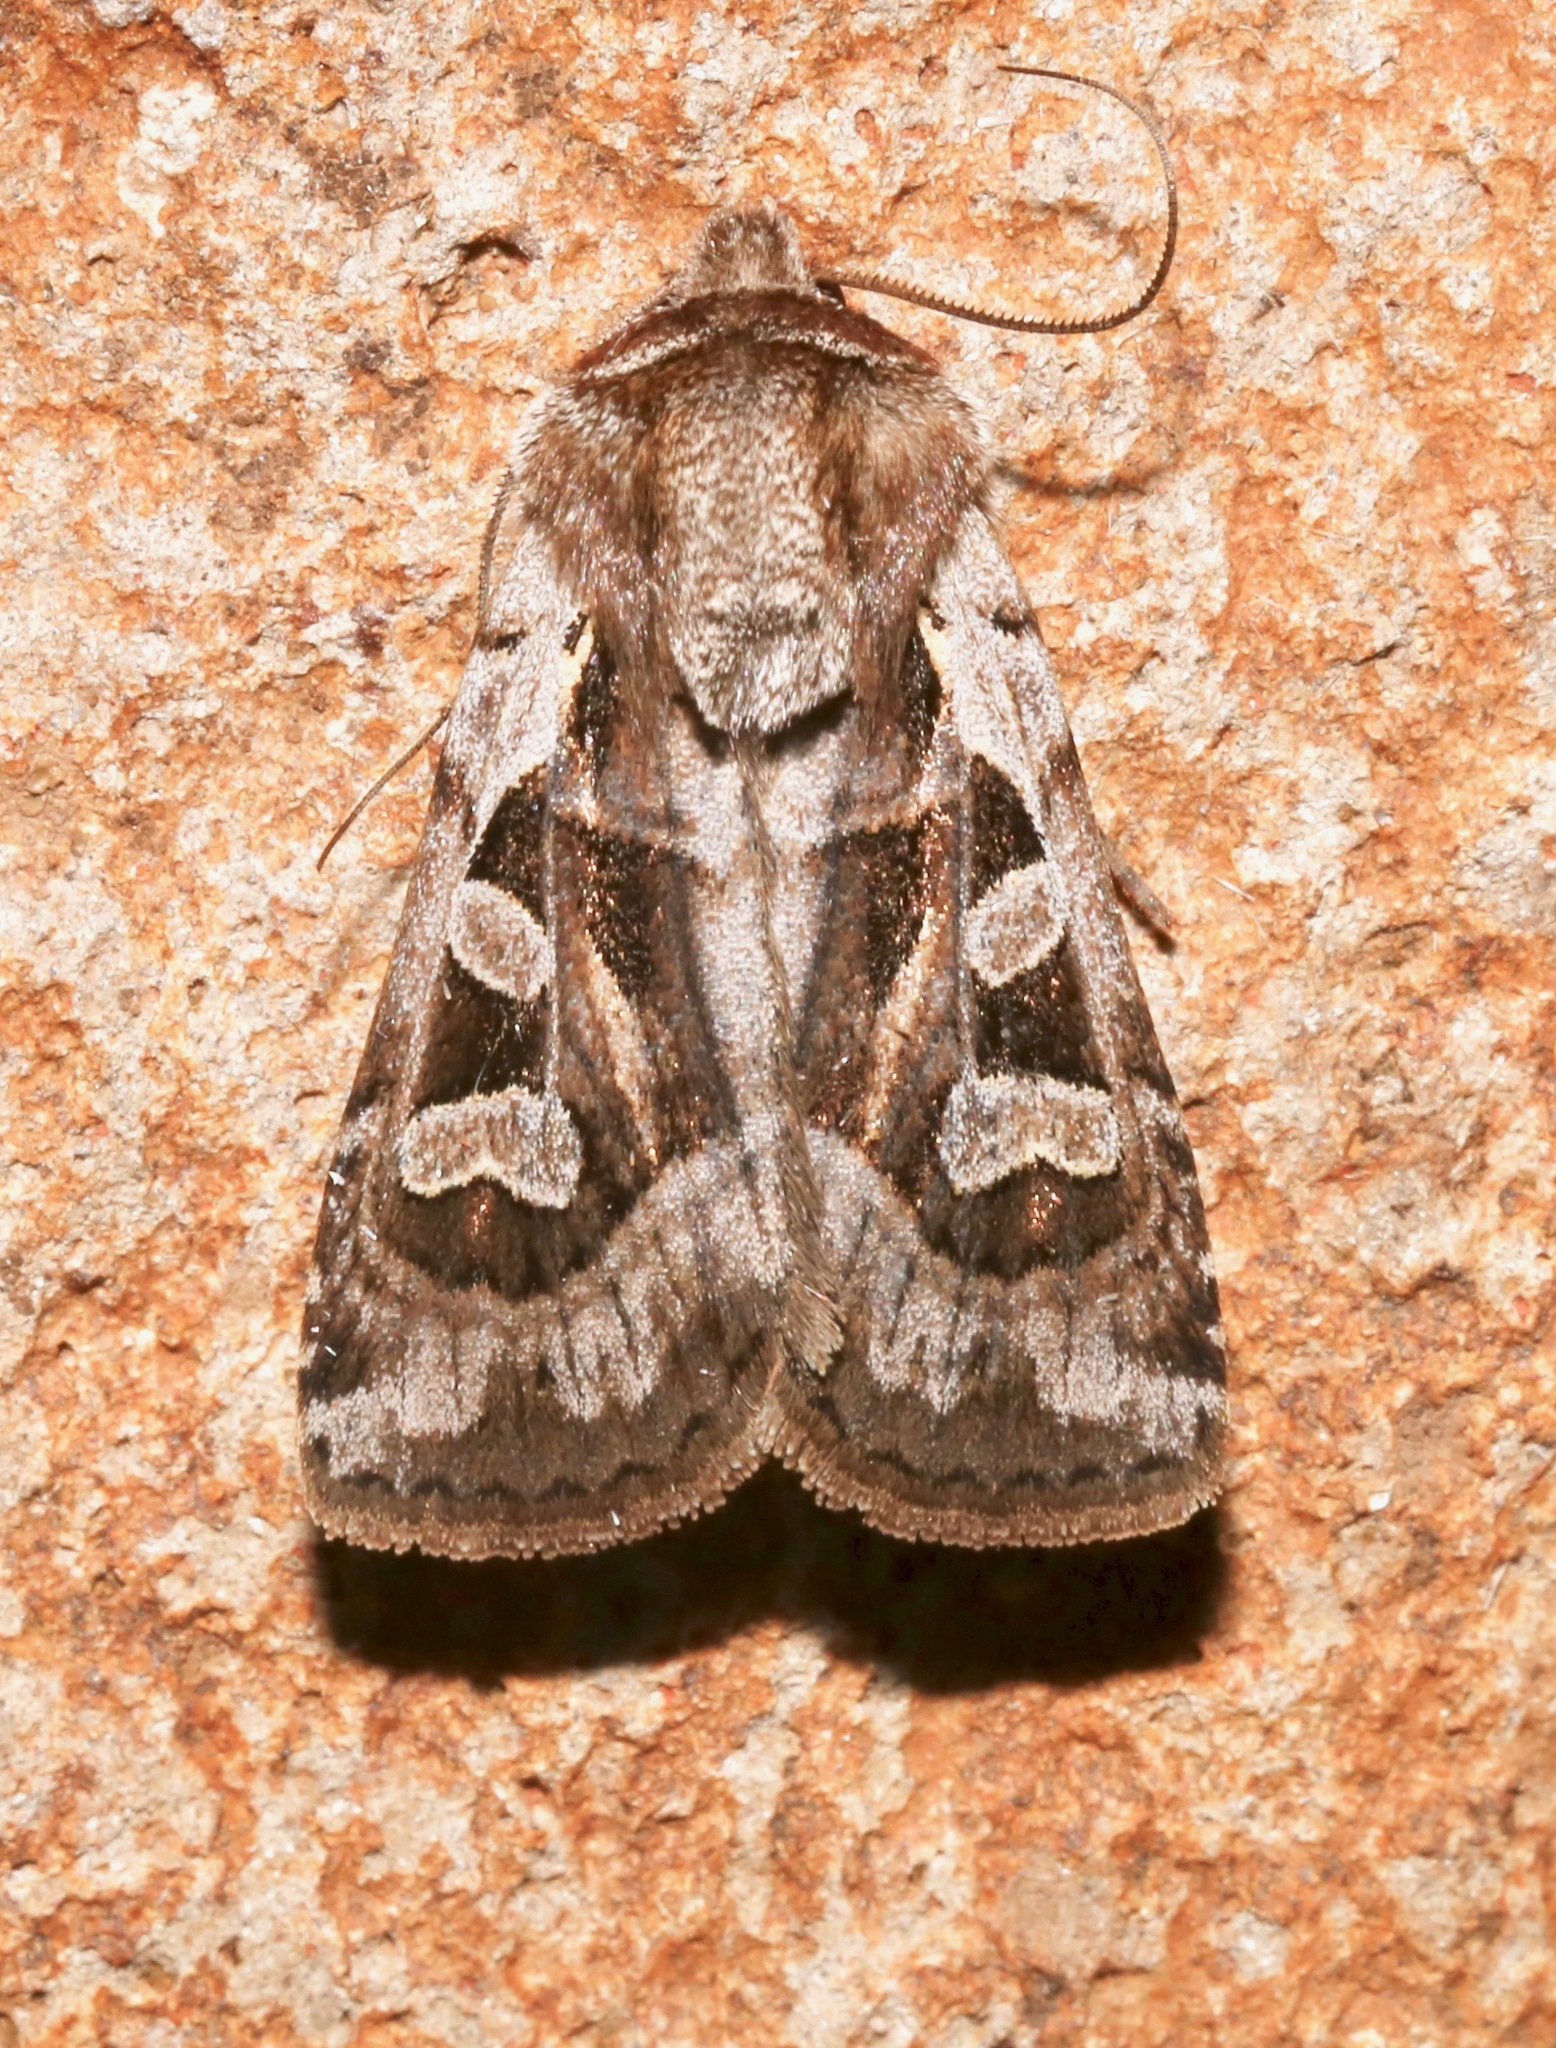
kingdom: Animalia
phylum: Arthropoda
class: Insecta
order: Lepidoptera
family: Noctuidae
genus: Euxoa
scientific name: Euxoa auripennis
